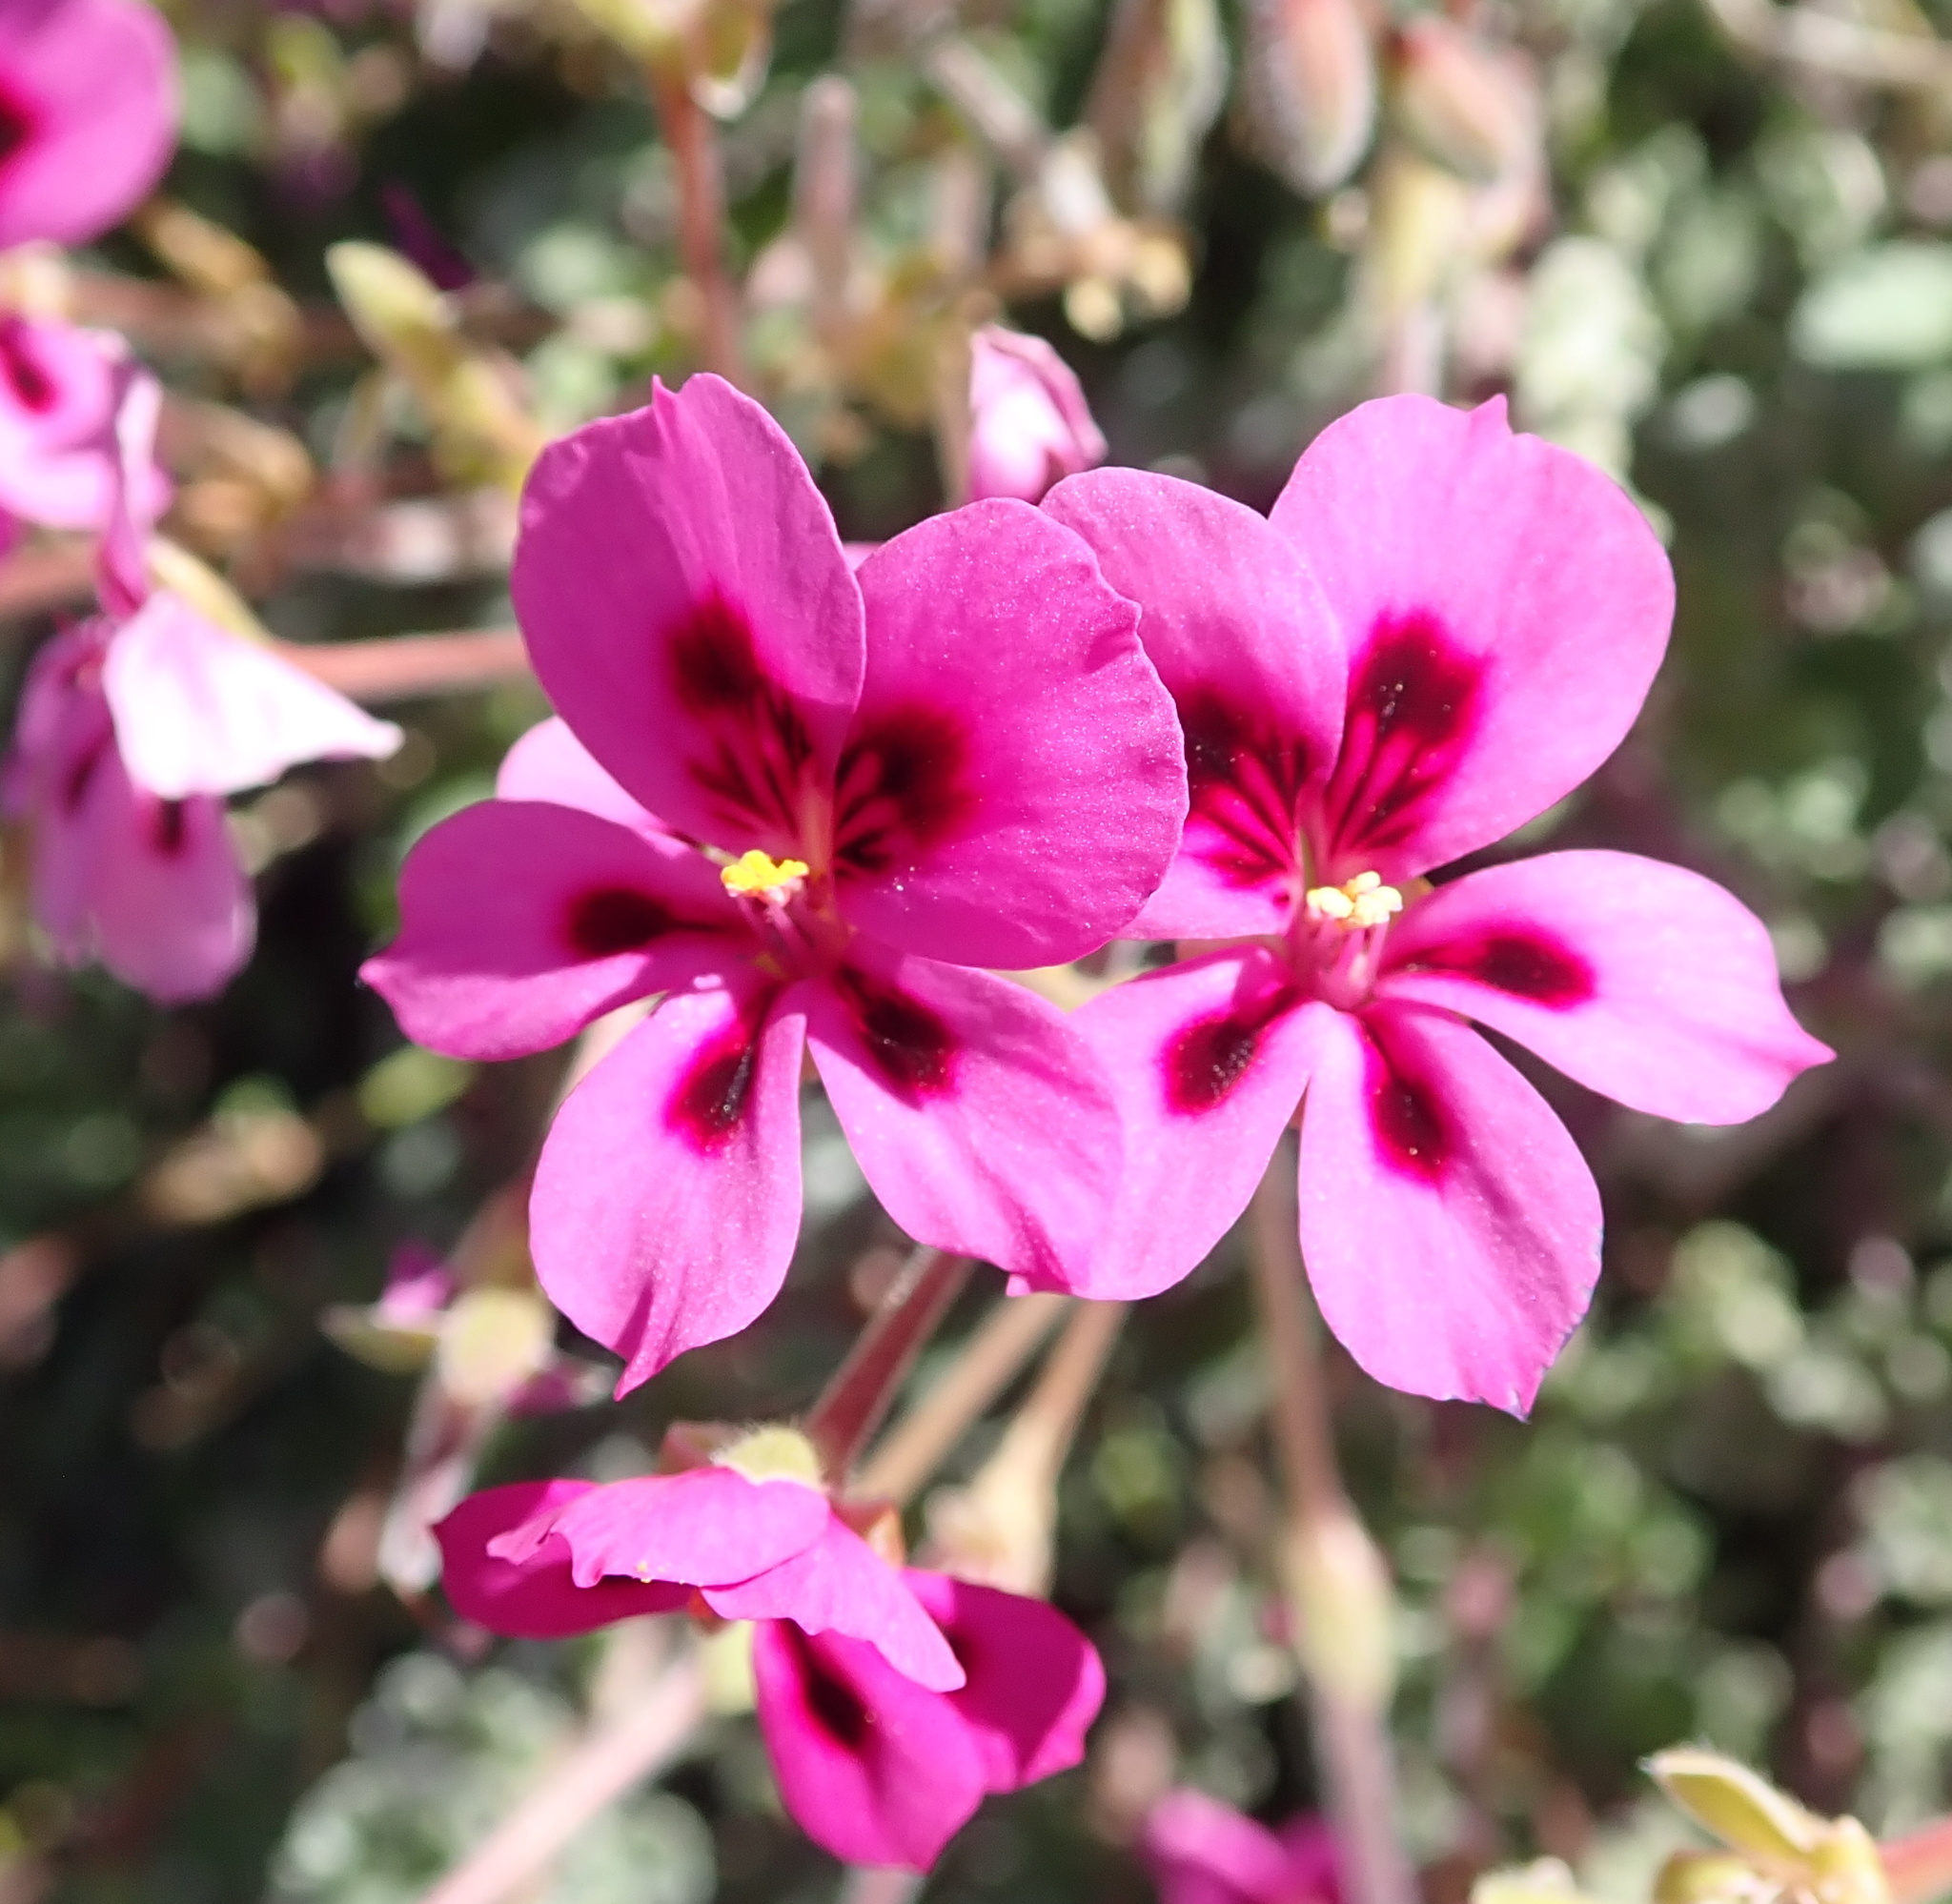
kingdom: Plantae
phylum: Tracheophyta
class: Magnoliopsida
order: Geraniales
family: Geraniaceae
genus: Pelargonium
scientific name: Pelargonium magenteum
